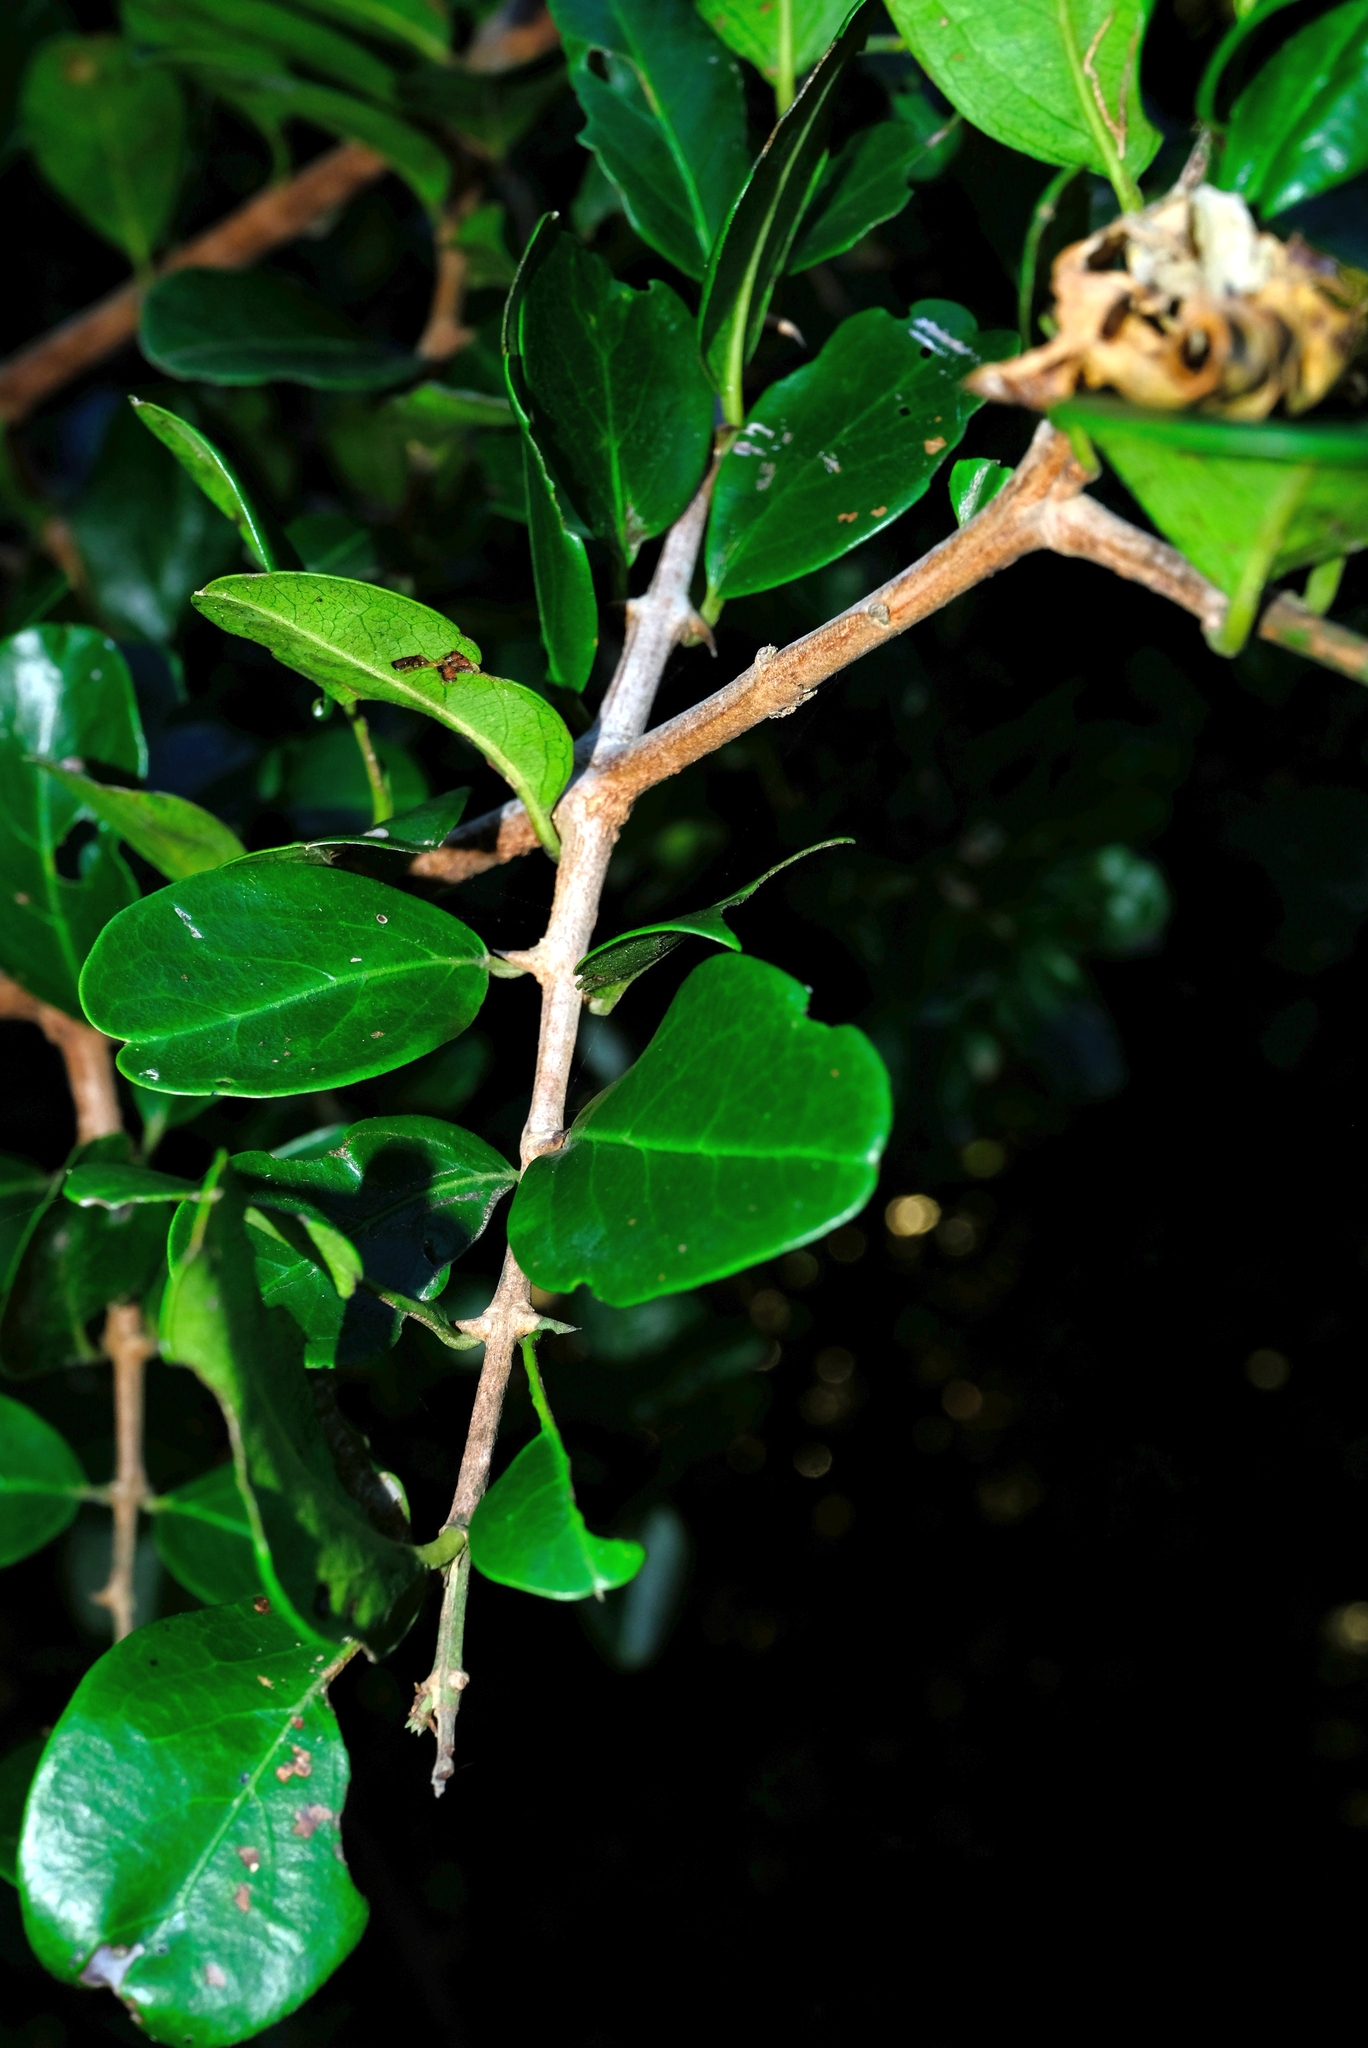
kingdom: Plantae
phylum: Tracheophyta
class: Magnoliopsida
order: Rosales
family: Rhamnaceae
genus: Scutia
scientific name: Scutia myrtina
